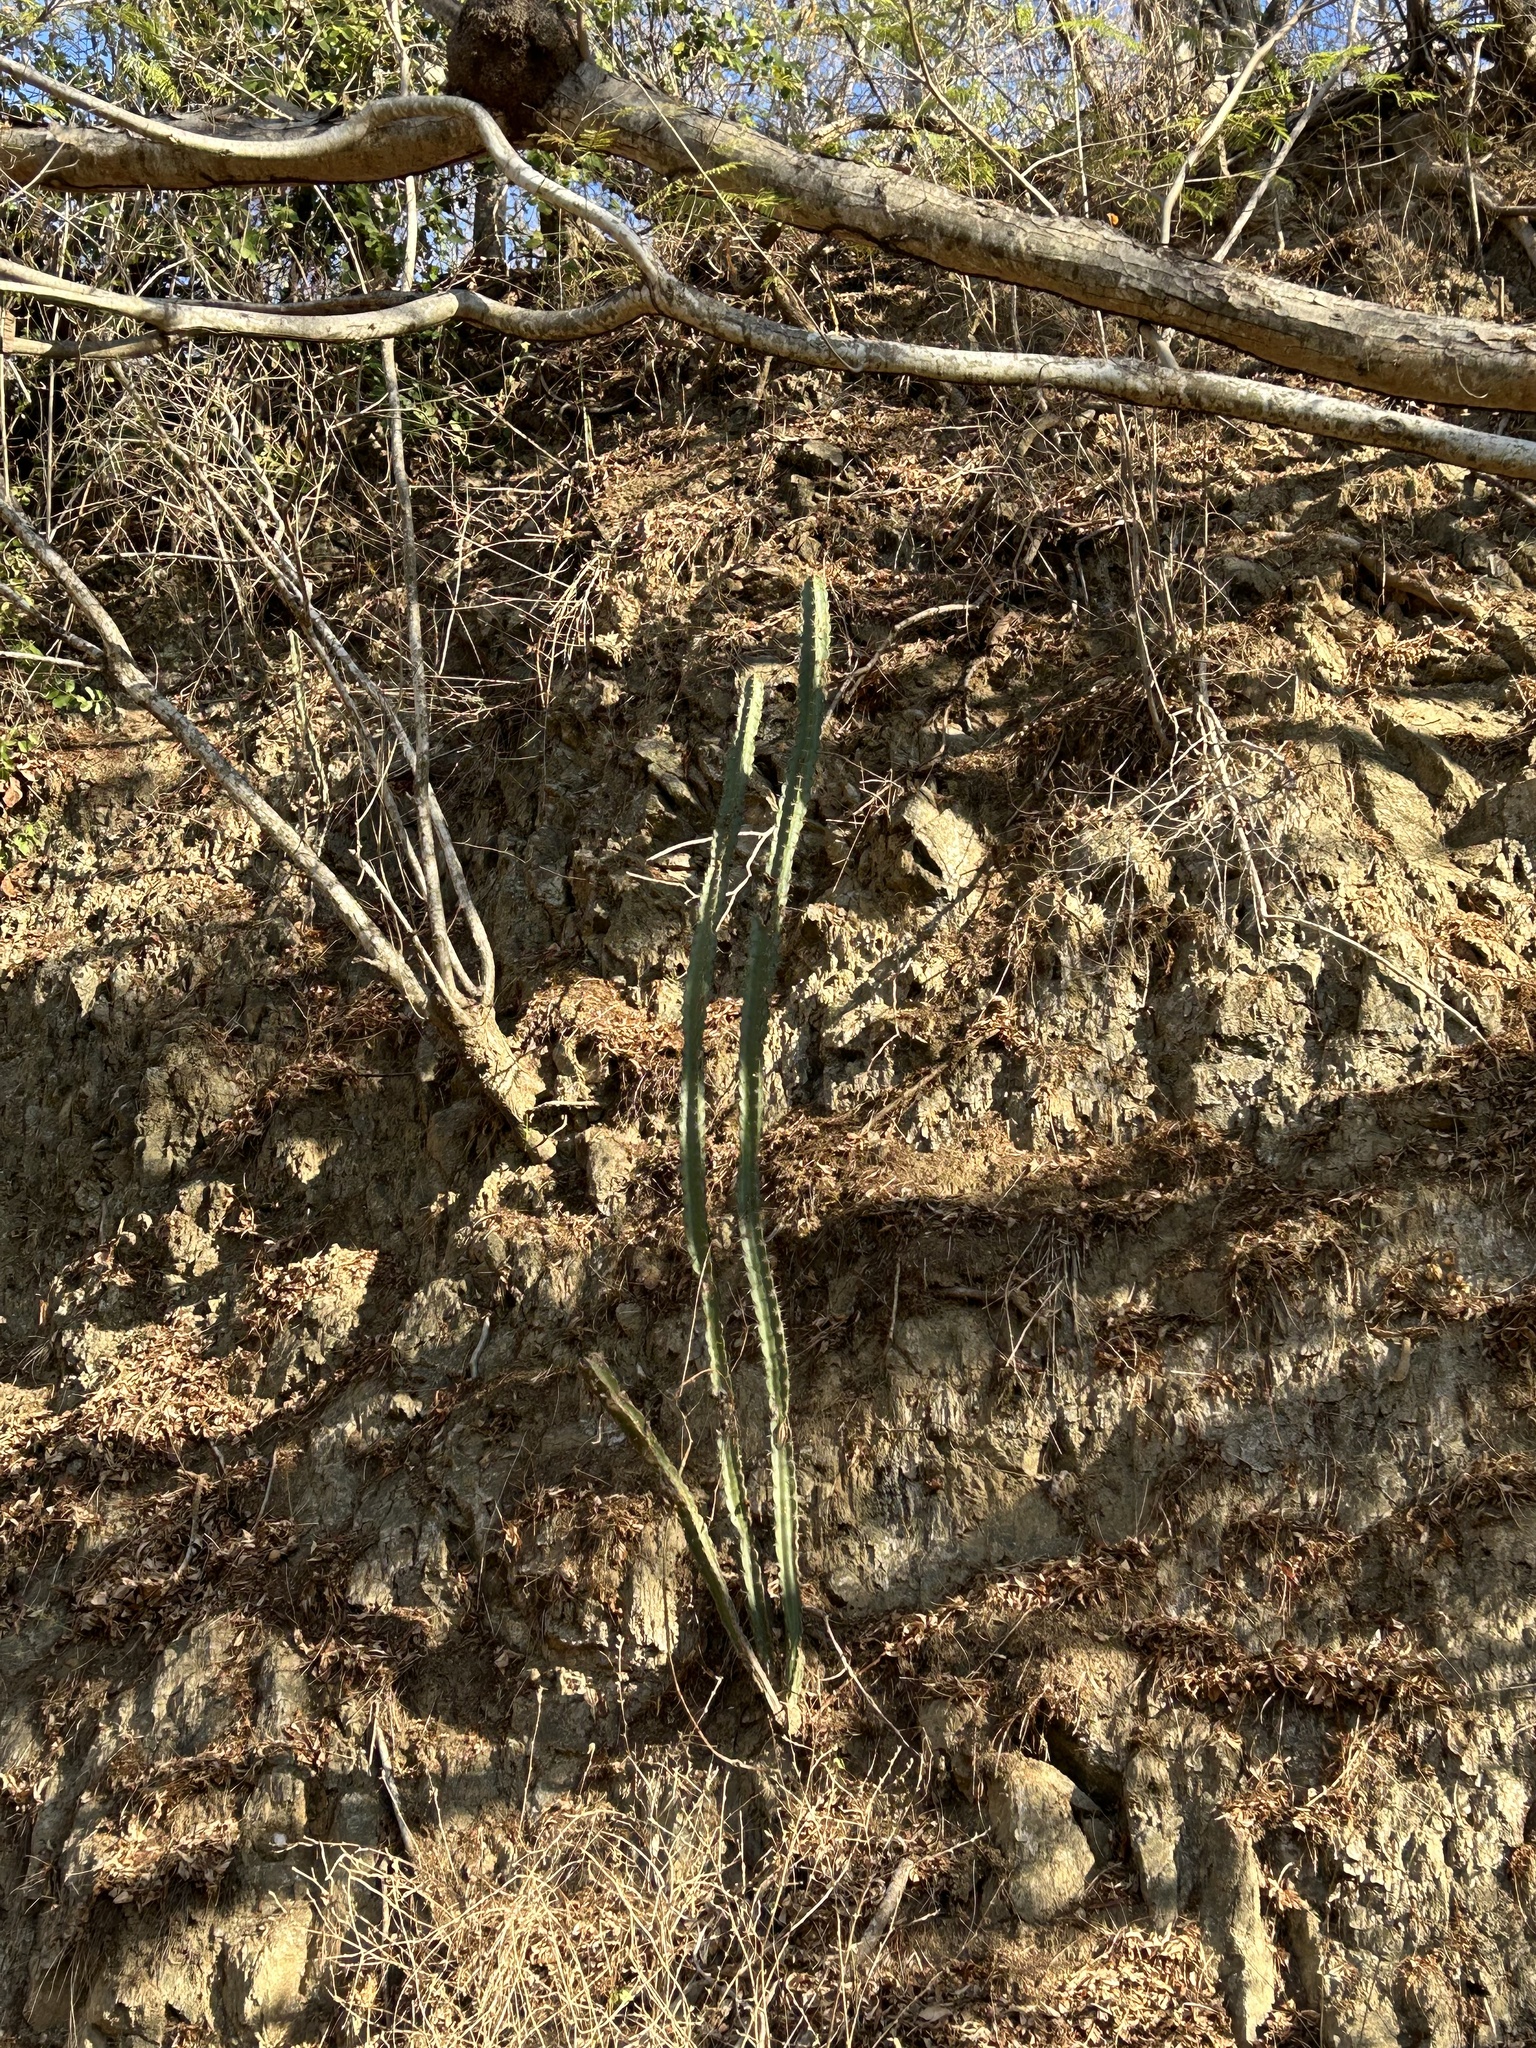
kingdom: Plantae
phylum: Tracheophyta
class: Magnoliopsida
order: Caryophyllales
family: Cactaceae
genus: Pachycereus
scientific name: Pachycereus pecten-aboriginum
